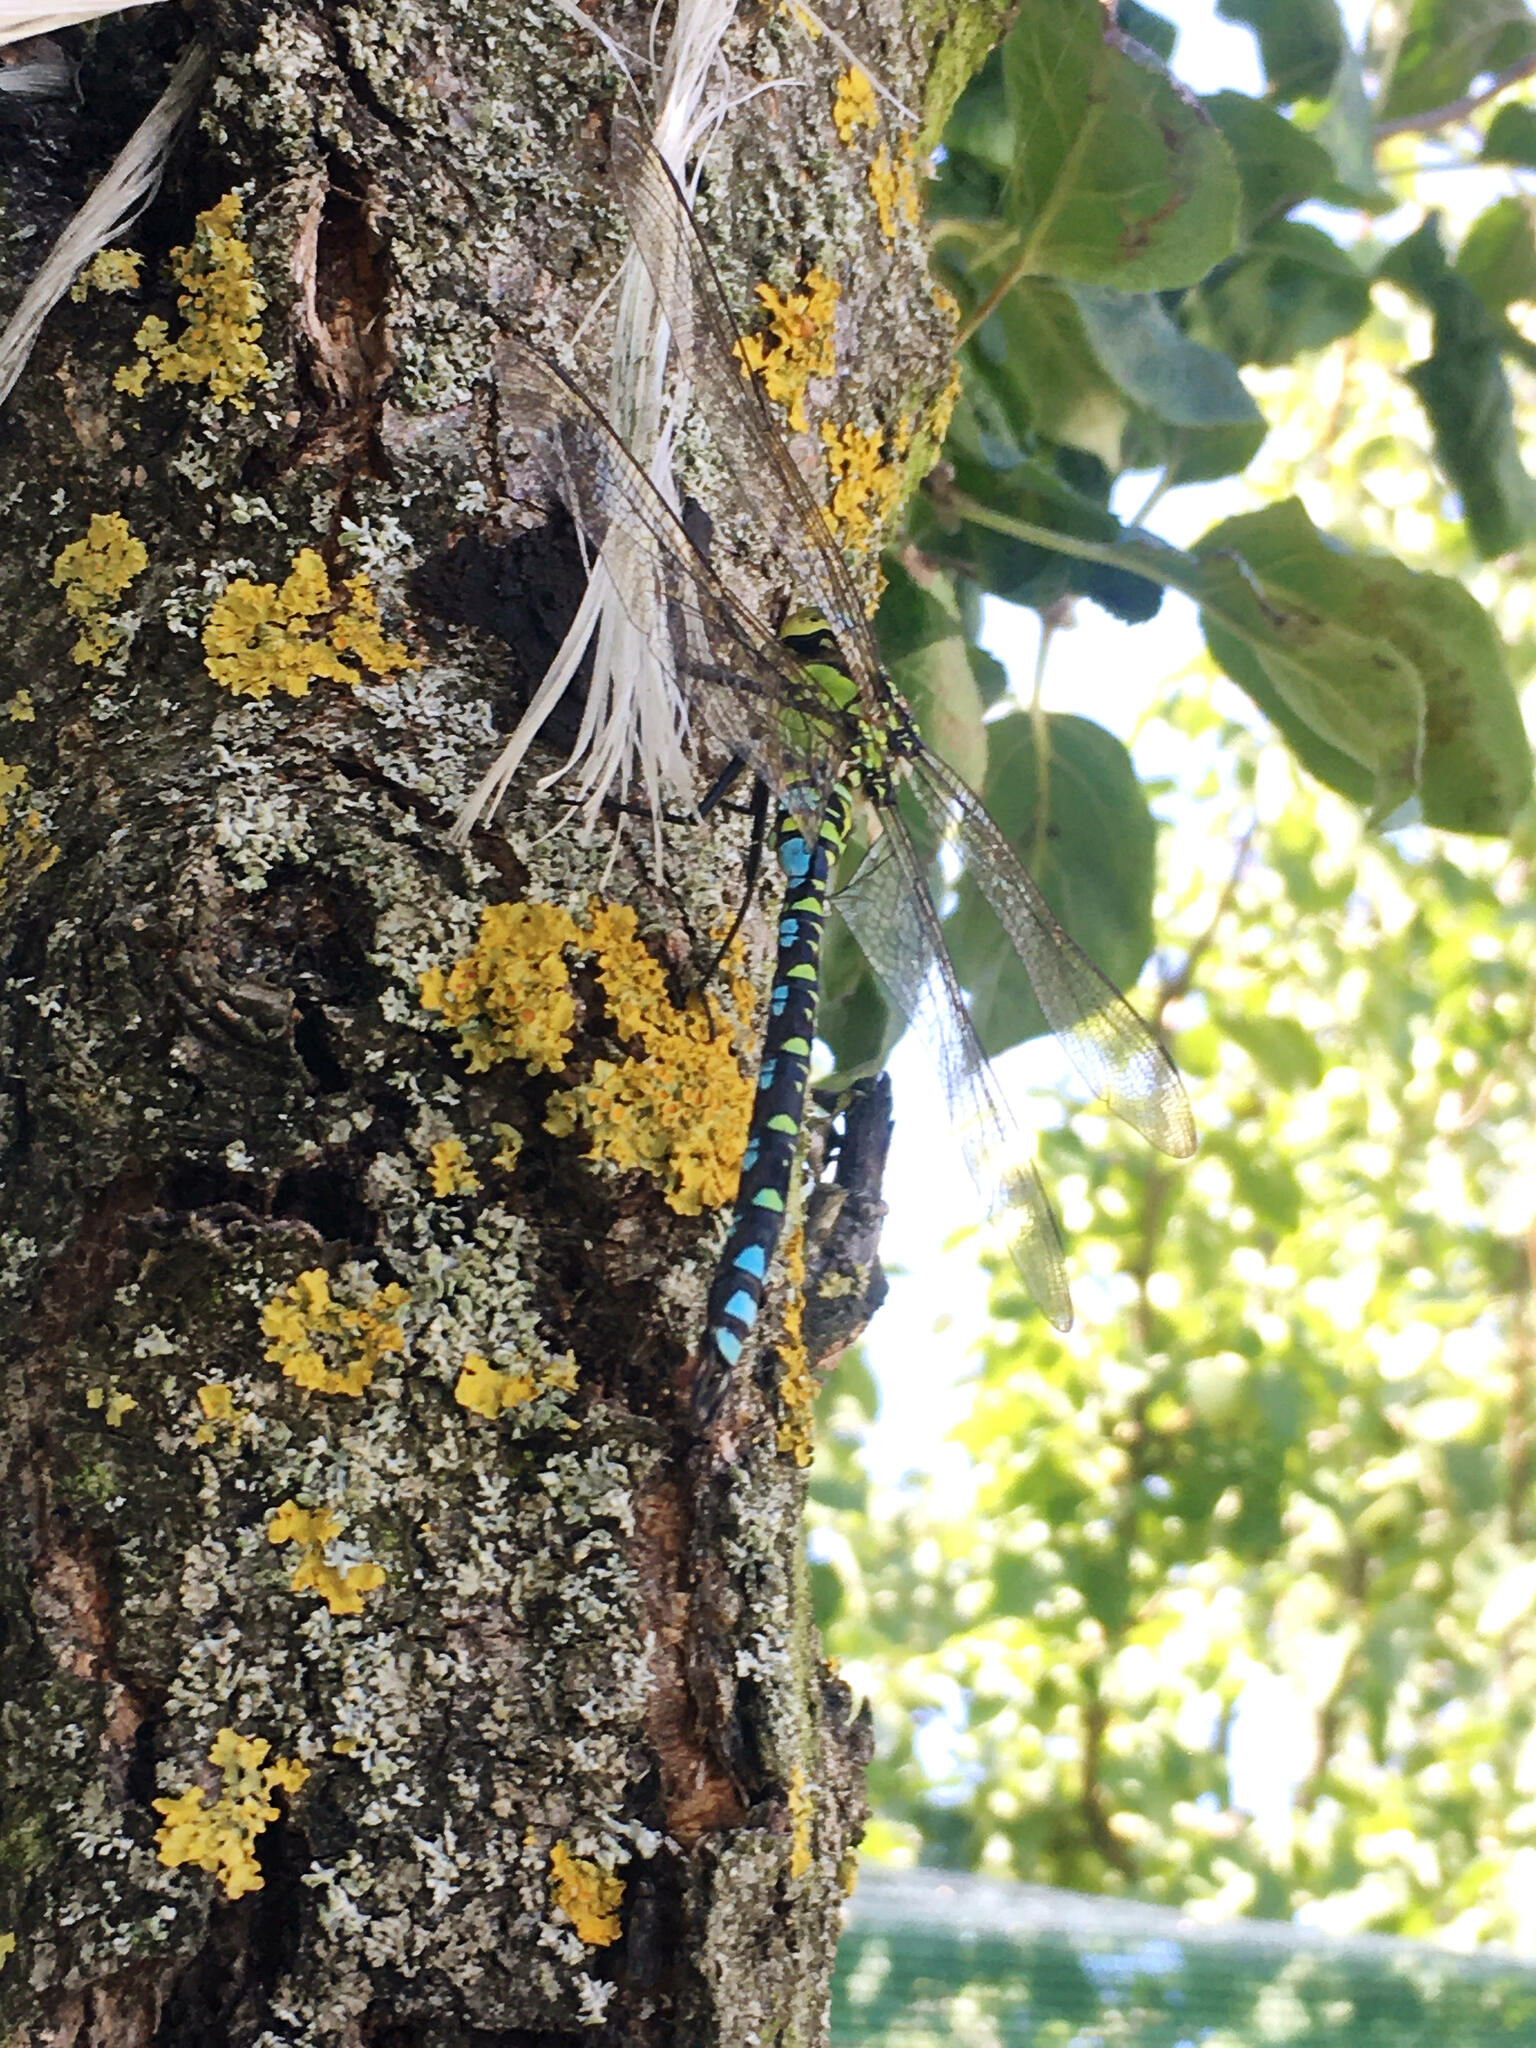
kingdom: Animalia
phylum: Arthropoda
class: Insecta
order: Odonata
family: Aeshnidae
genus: Aeshna
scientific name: Aeshna cyanea
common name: Southern hawker
